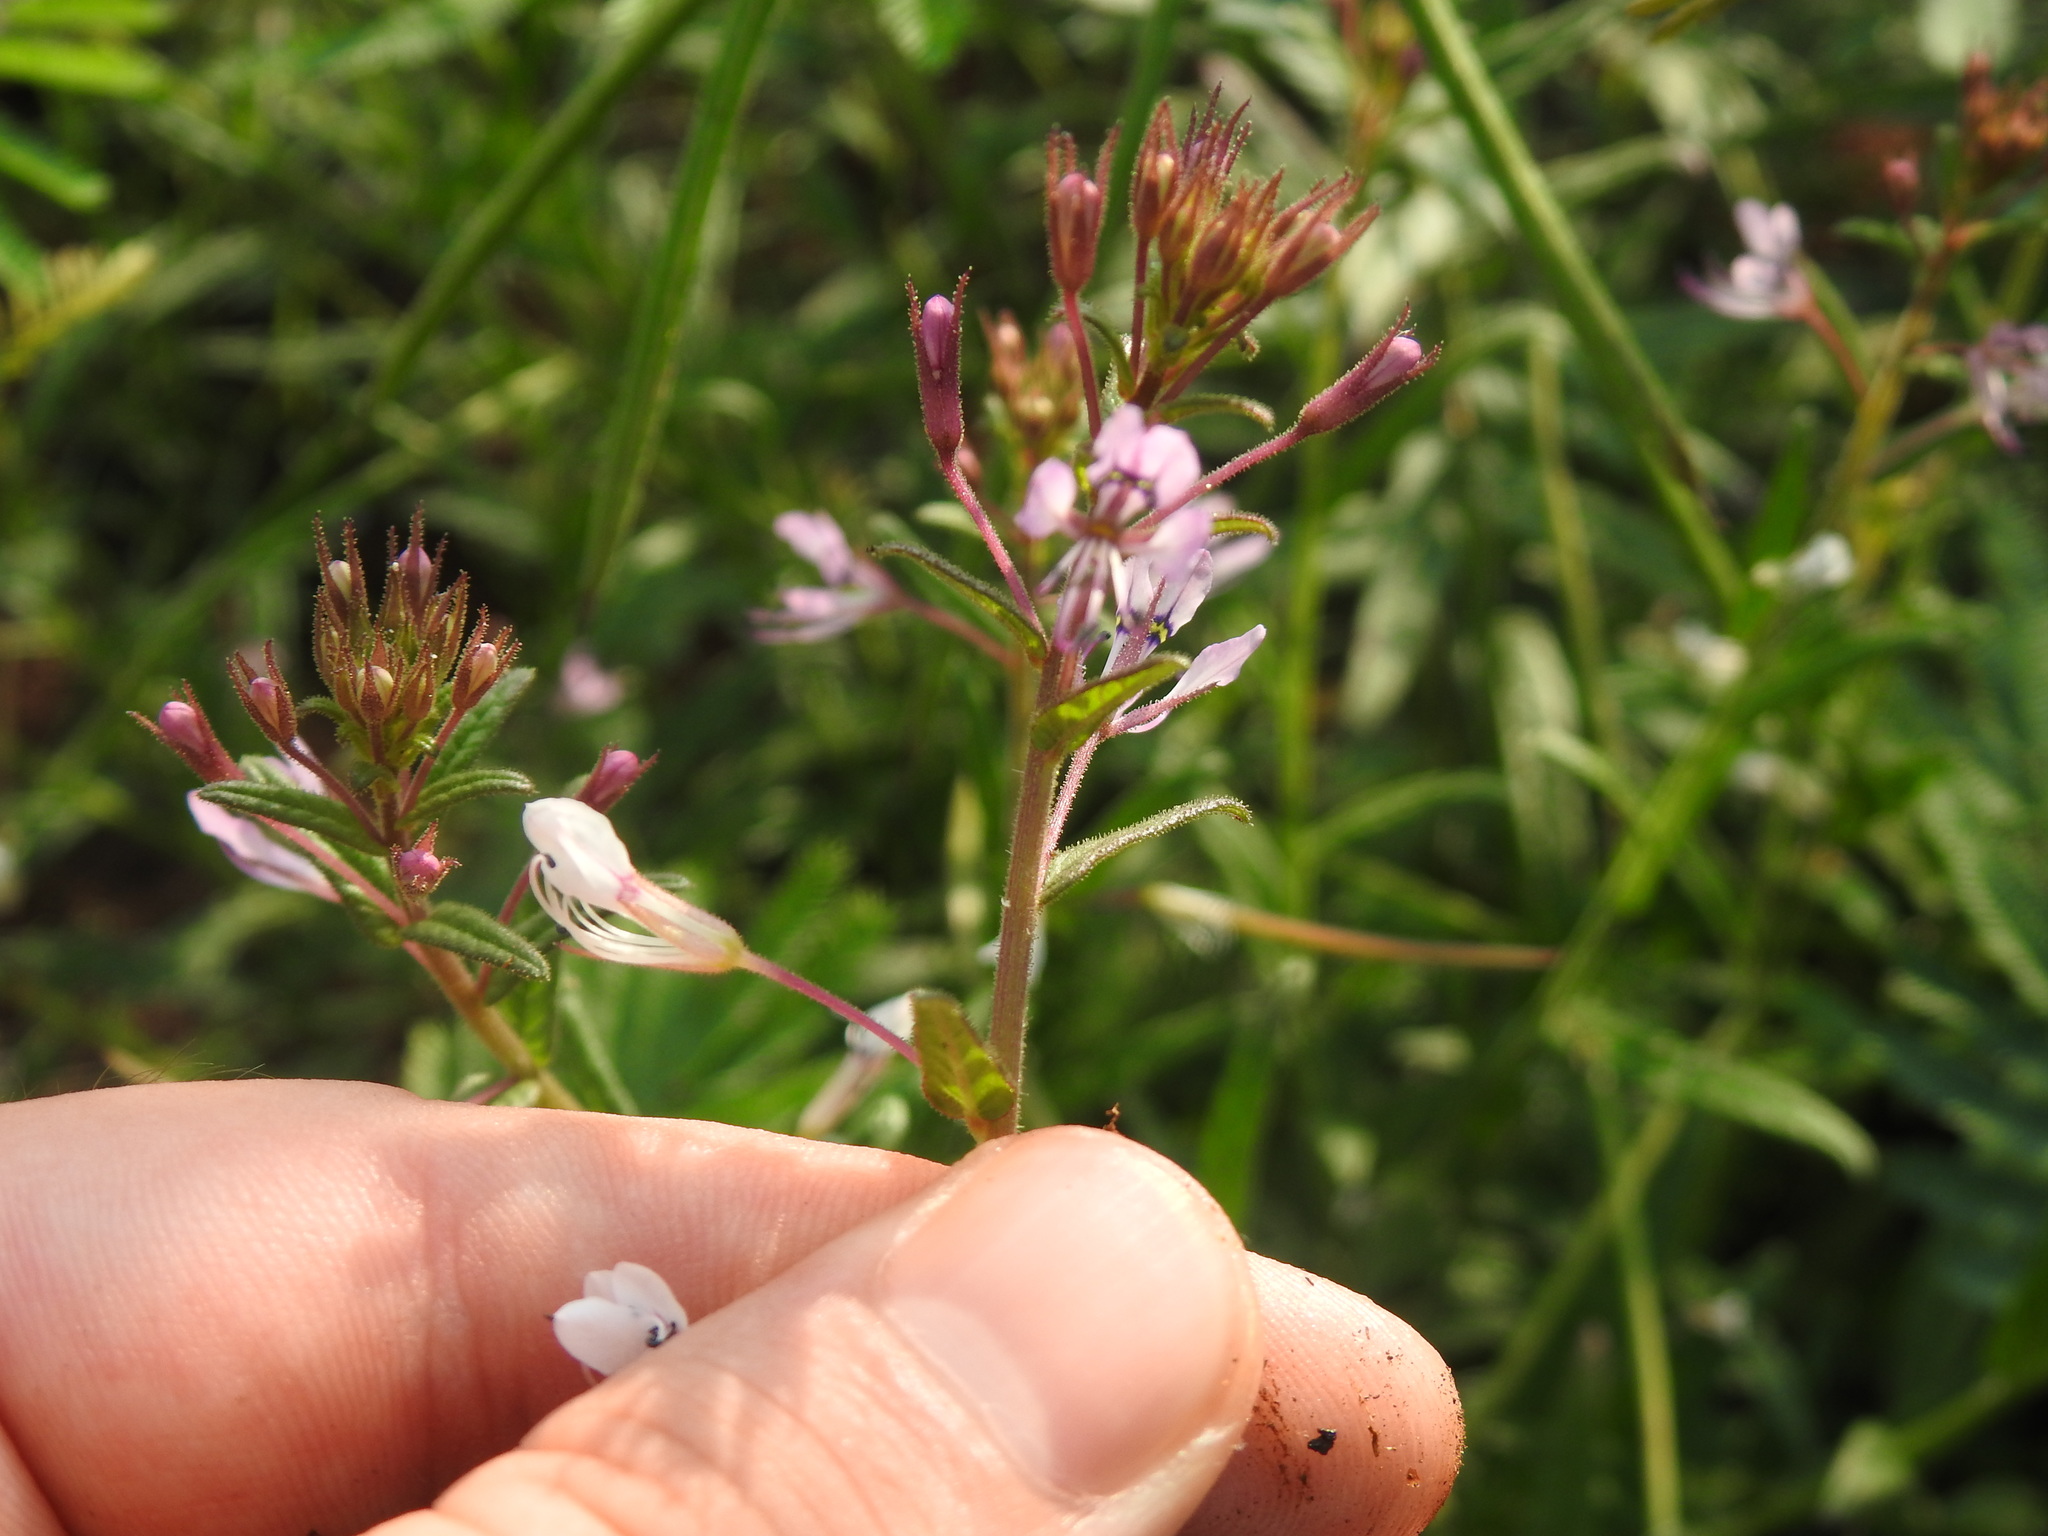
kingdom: Plantae
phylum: Tracheophyta
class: Magnoliopsida
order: Brassicales
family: Cleomaceae
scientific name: Cleomaceae
